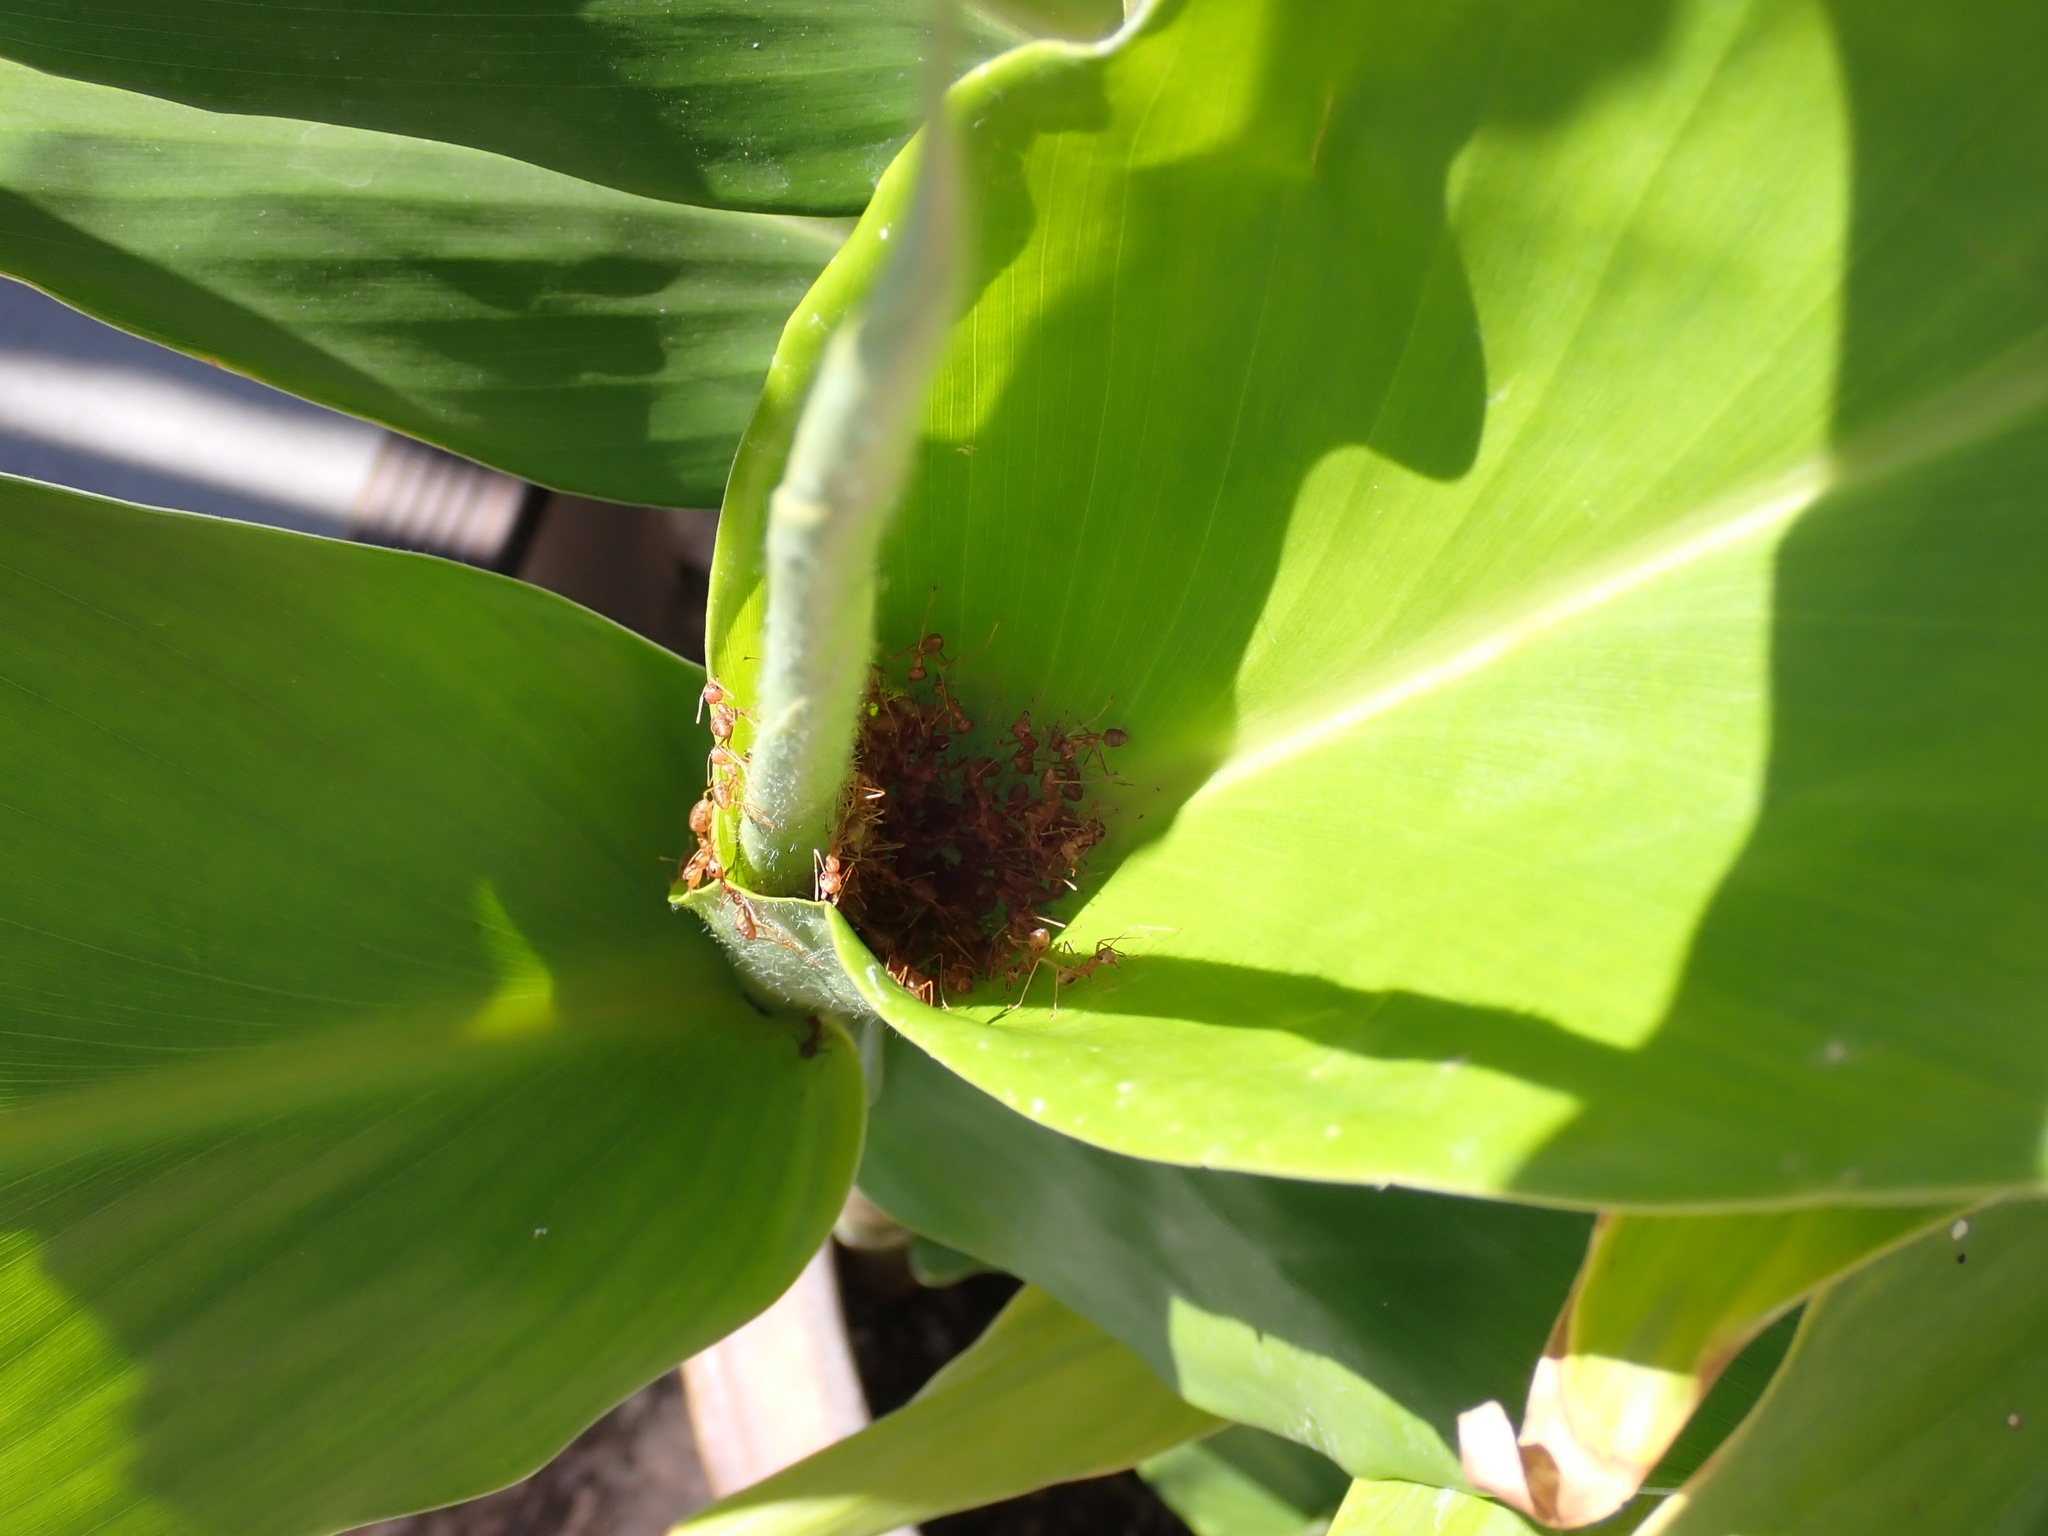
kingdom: Animalia
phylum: Arthropoda
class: Insecta
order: Hymenoptera
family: Formicidae
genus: Oecophylla
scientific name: Oecophylla smaragdina
